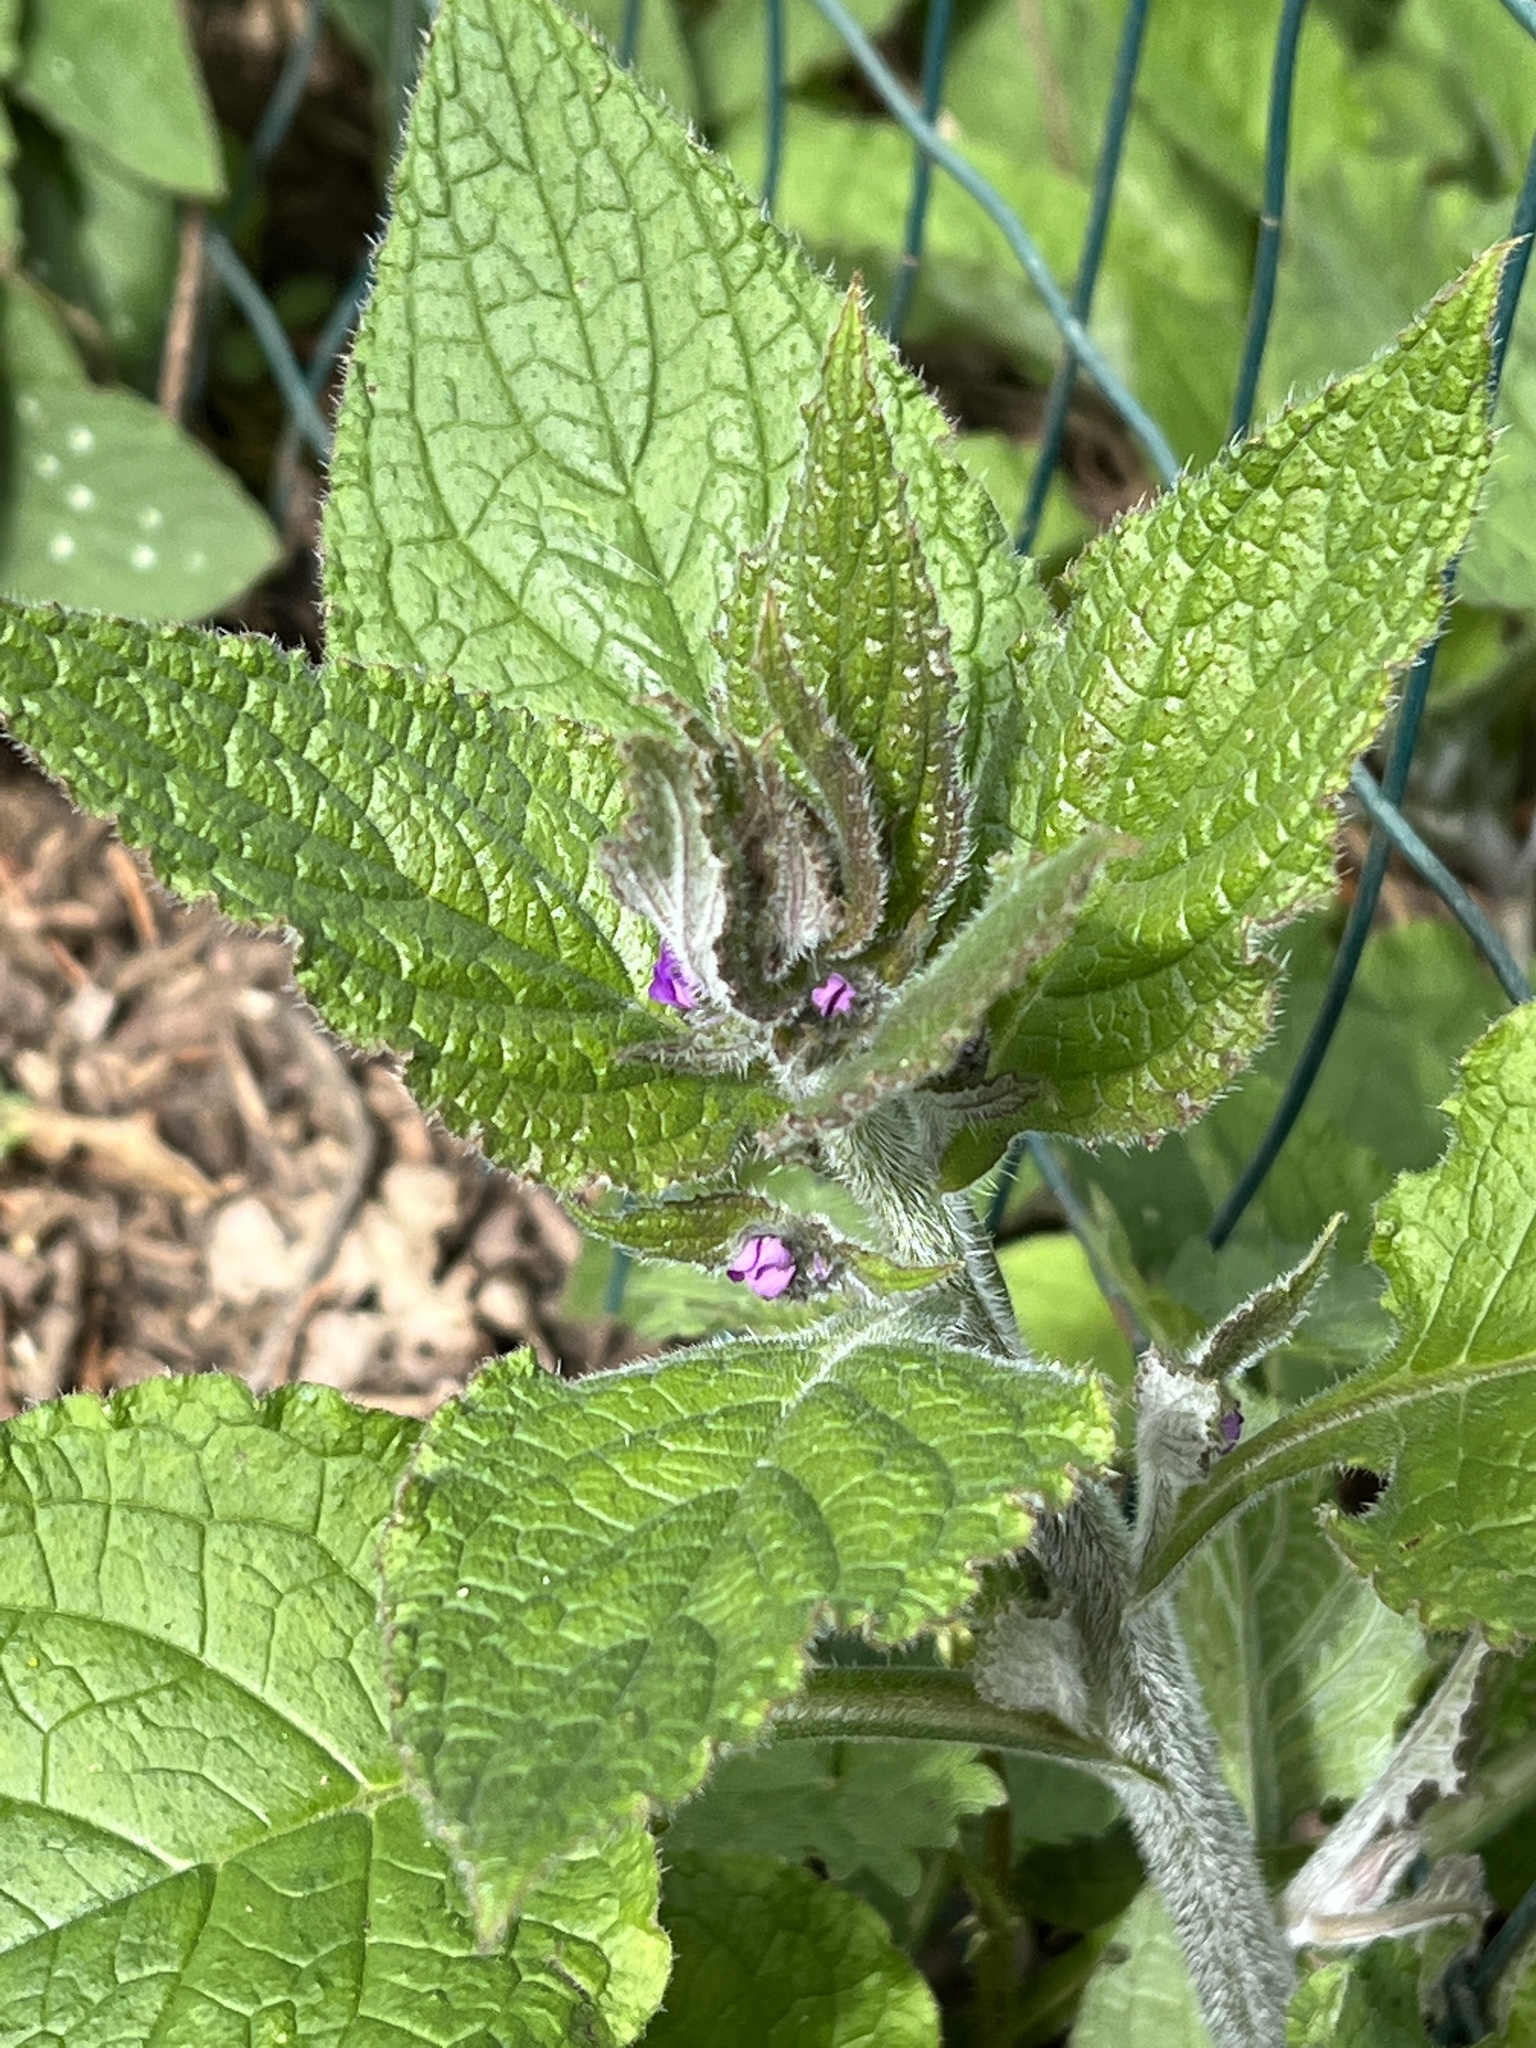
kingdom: Plantae
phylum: Tracheophyta
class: Magnoliopsida
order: Boraginales
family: Boraginaceae
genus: Pentaglottis
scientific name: Pentaglottis sempervirens
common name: Green alkanet
